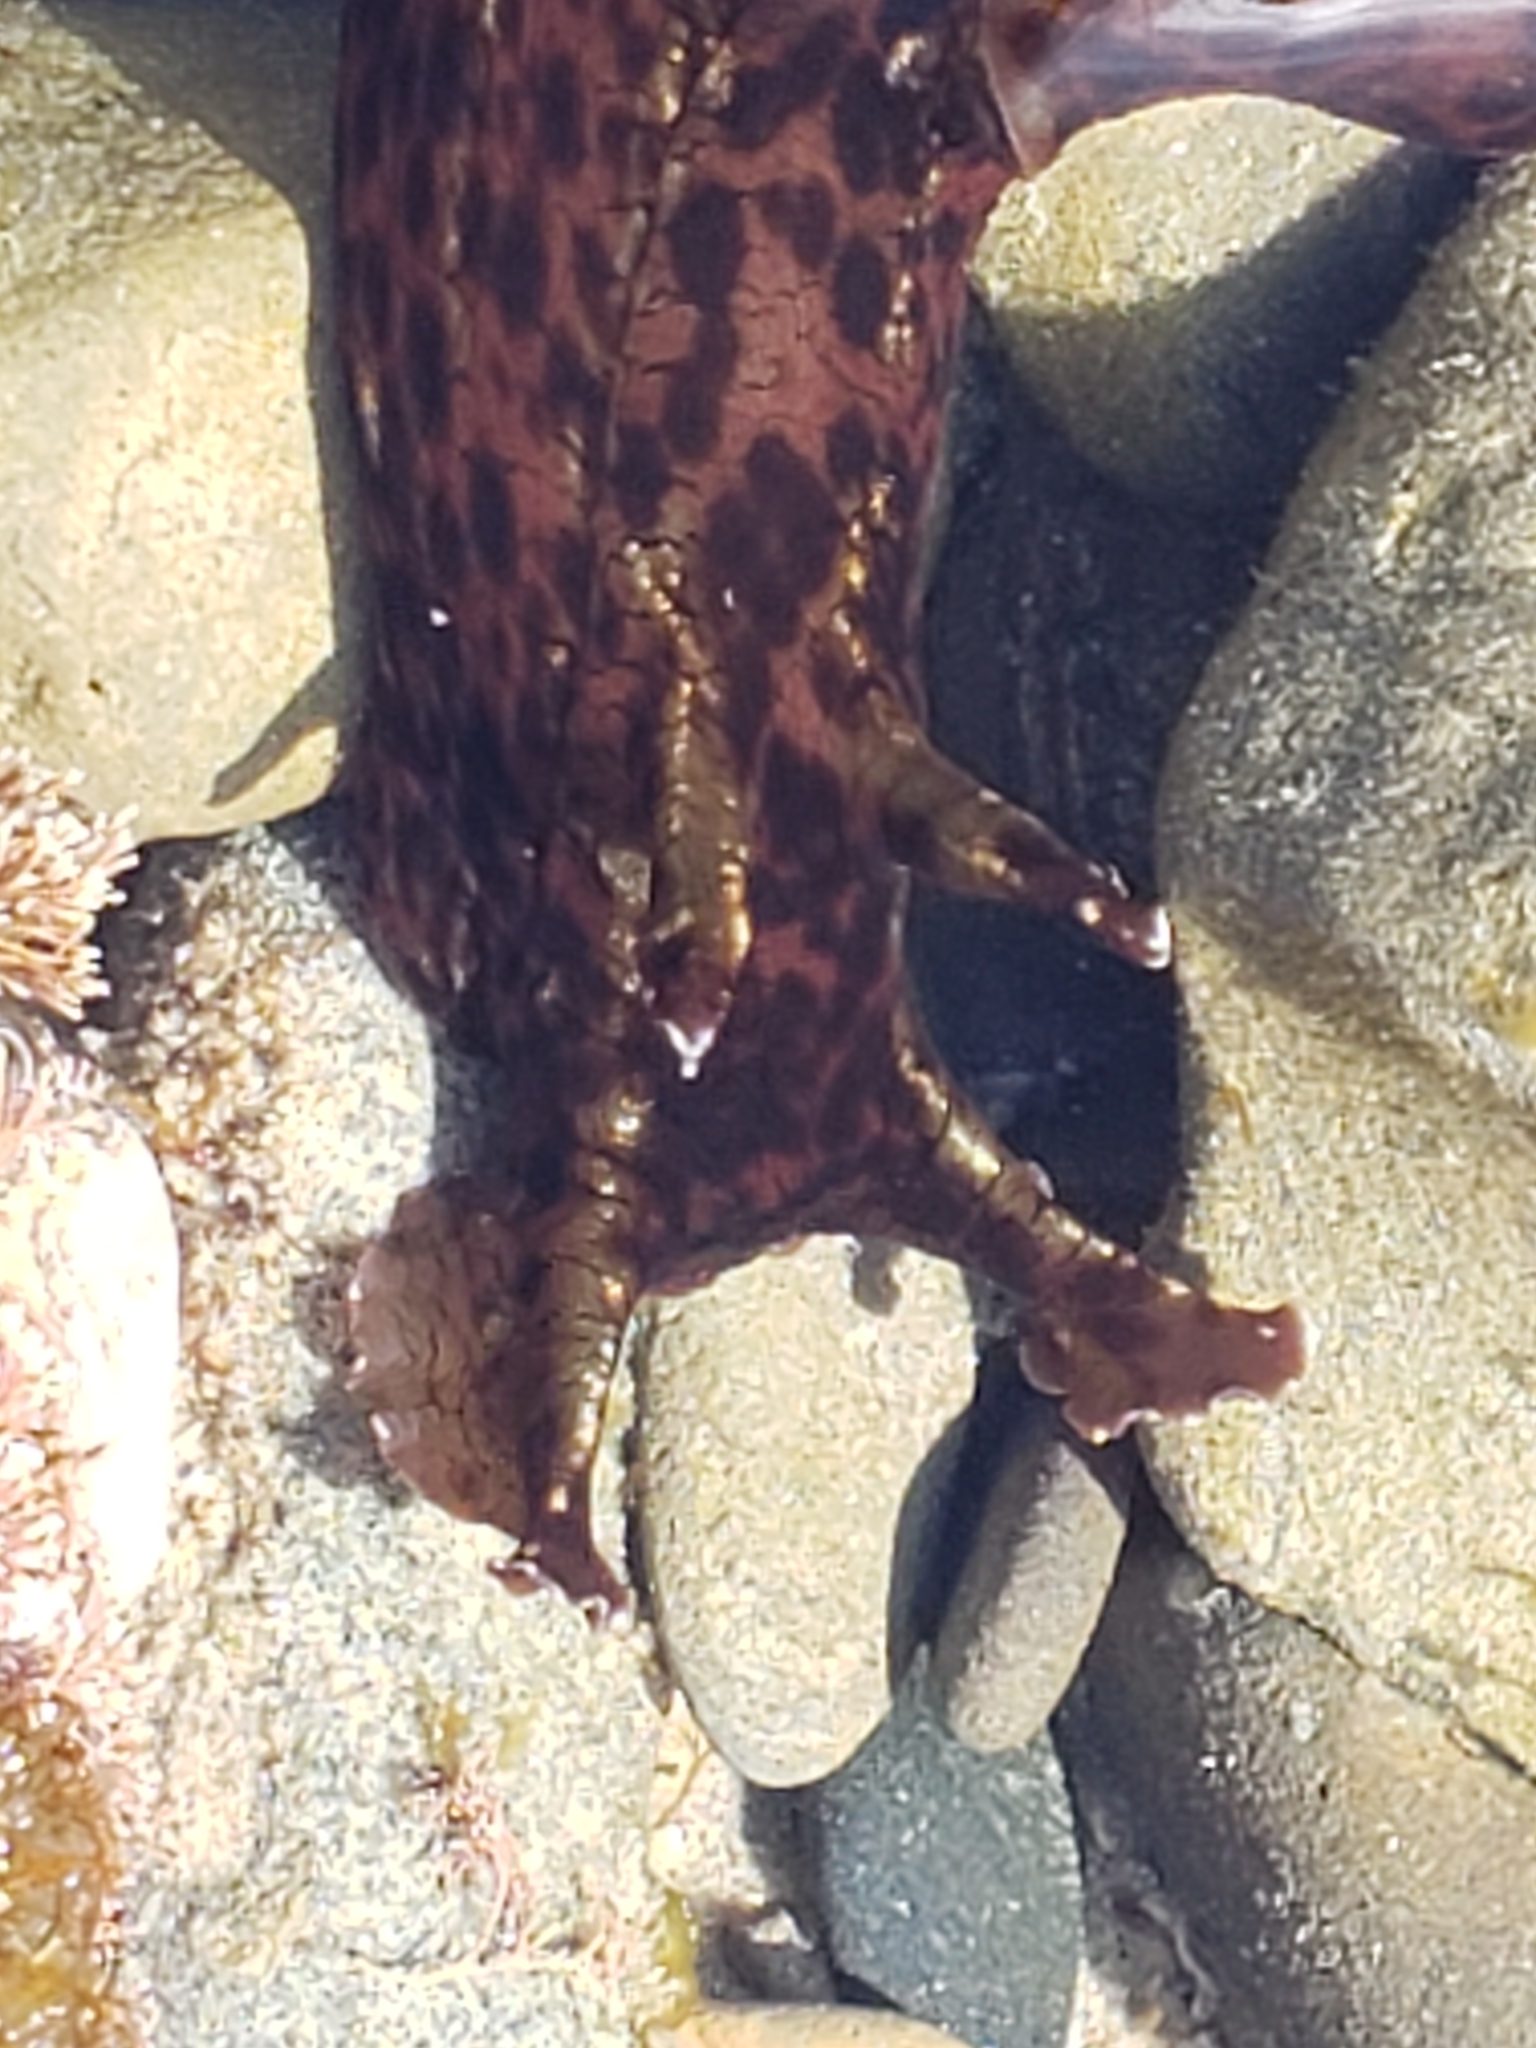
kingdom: Animalia
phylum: Mollusca
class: Gastropoda
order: Aplysiida
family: Aplysiidae
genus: Aplysia
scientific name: Aplysia californica
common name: California seahare
